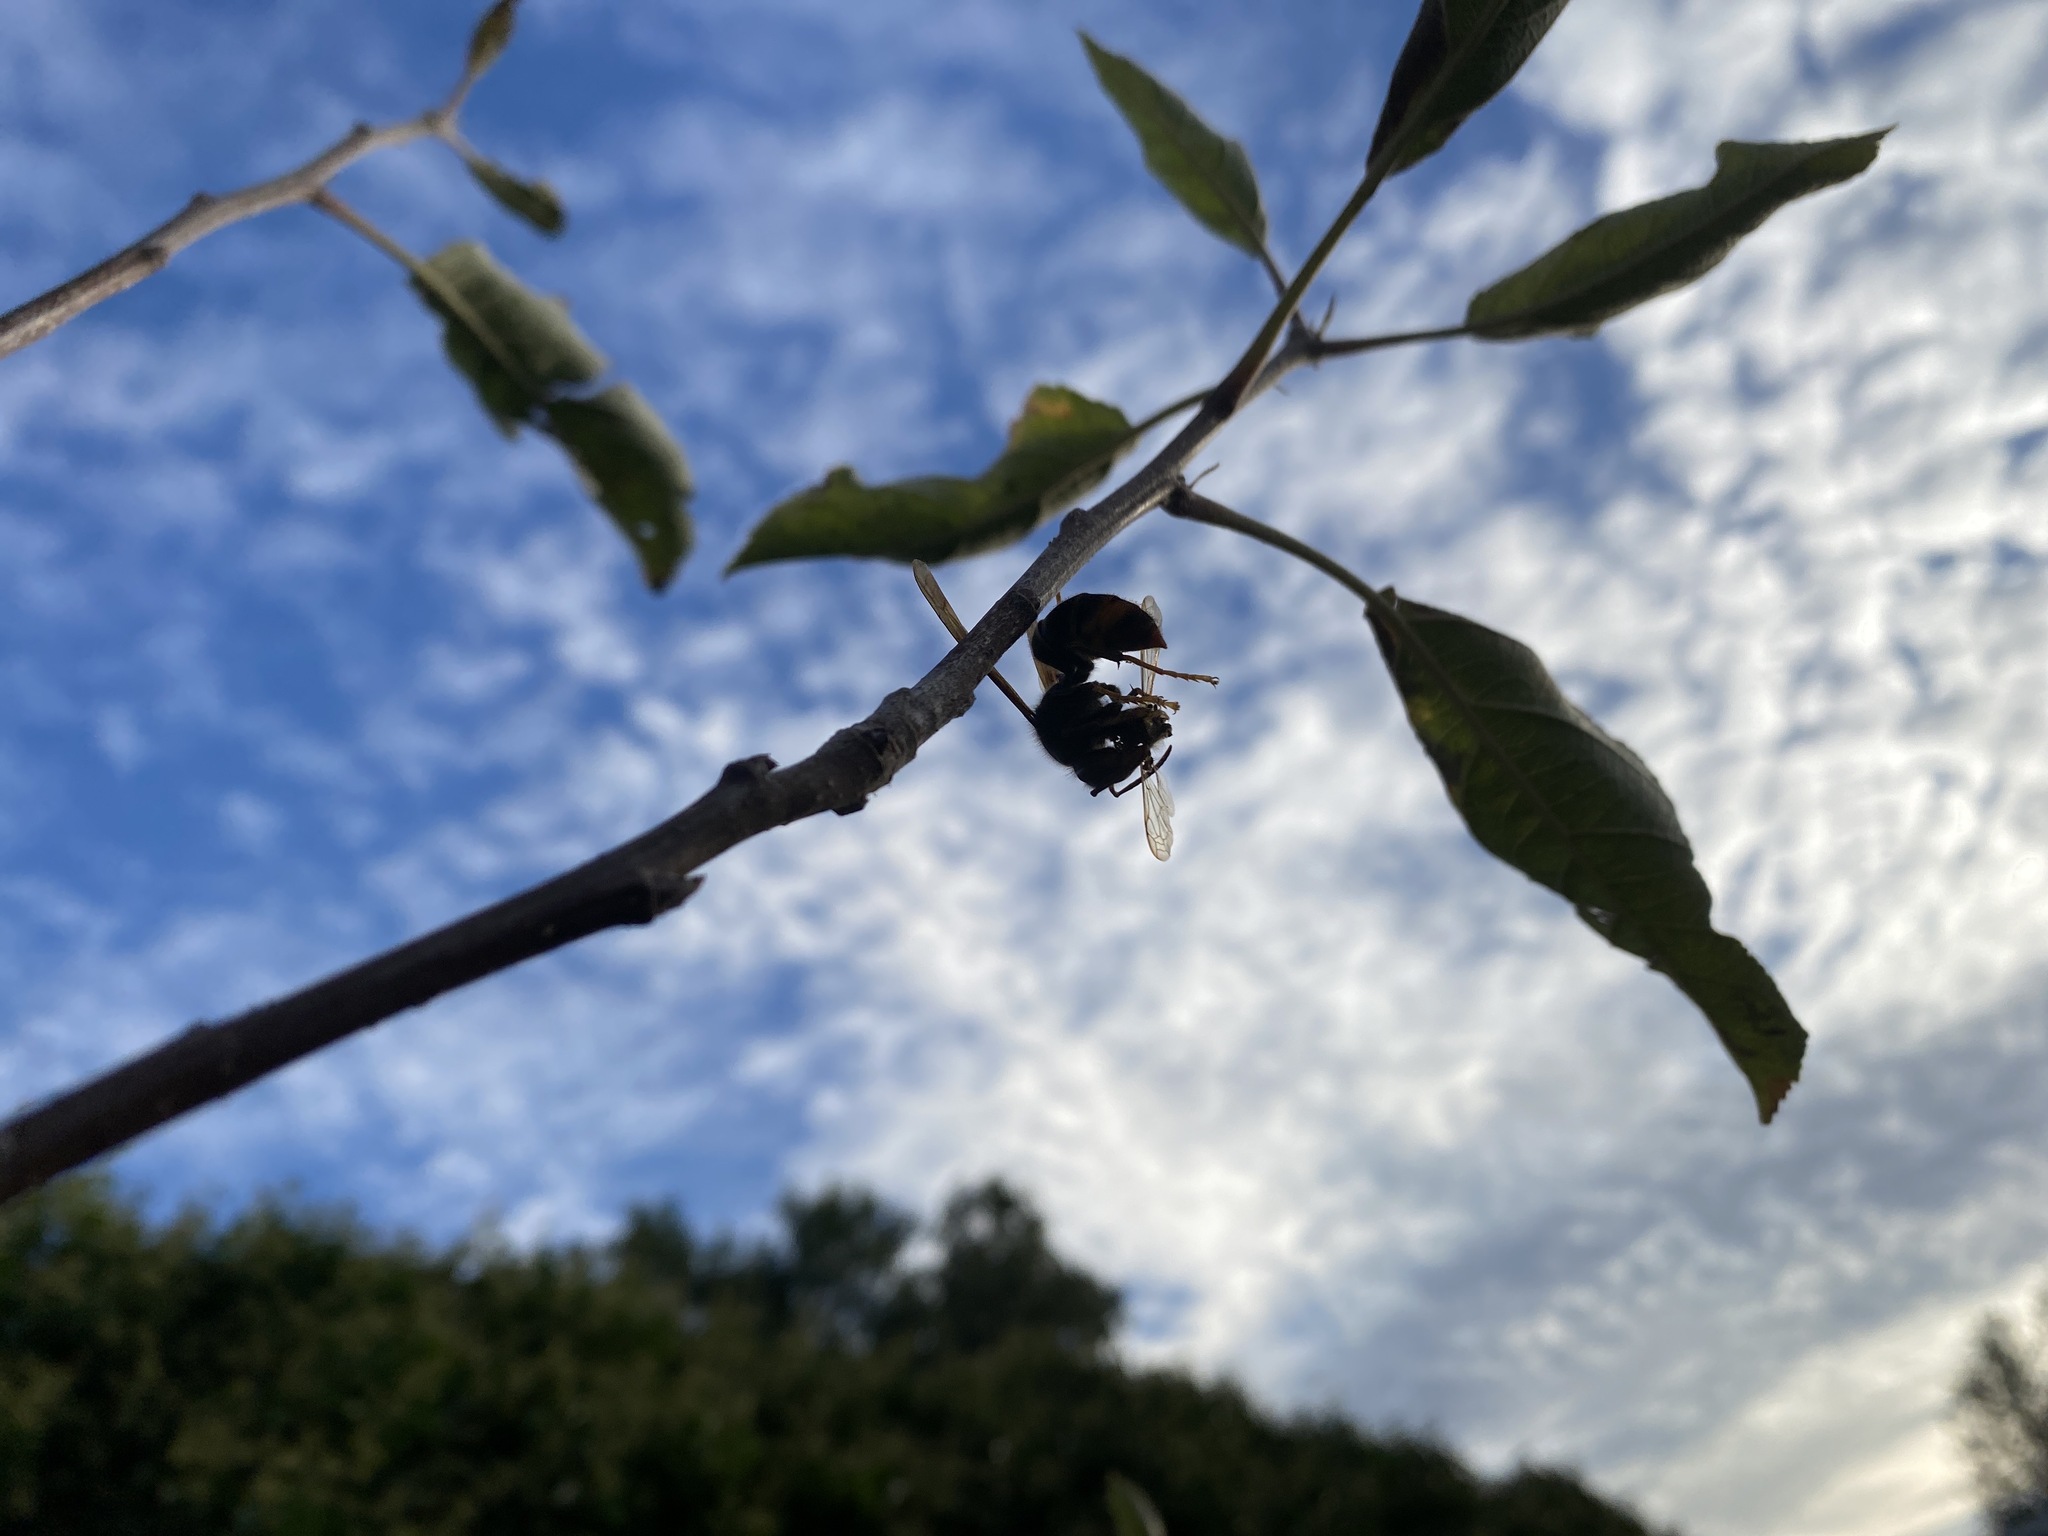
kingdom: Animalia
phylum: Arthropoda
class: Insecta
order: Hymenoptera
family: Vespidae
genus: Vespa
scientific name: Vespa velutina
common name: Asian hornet
